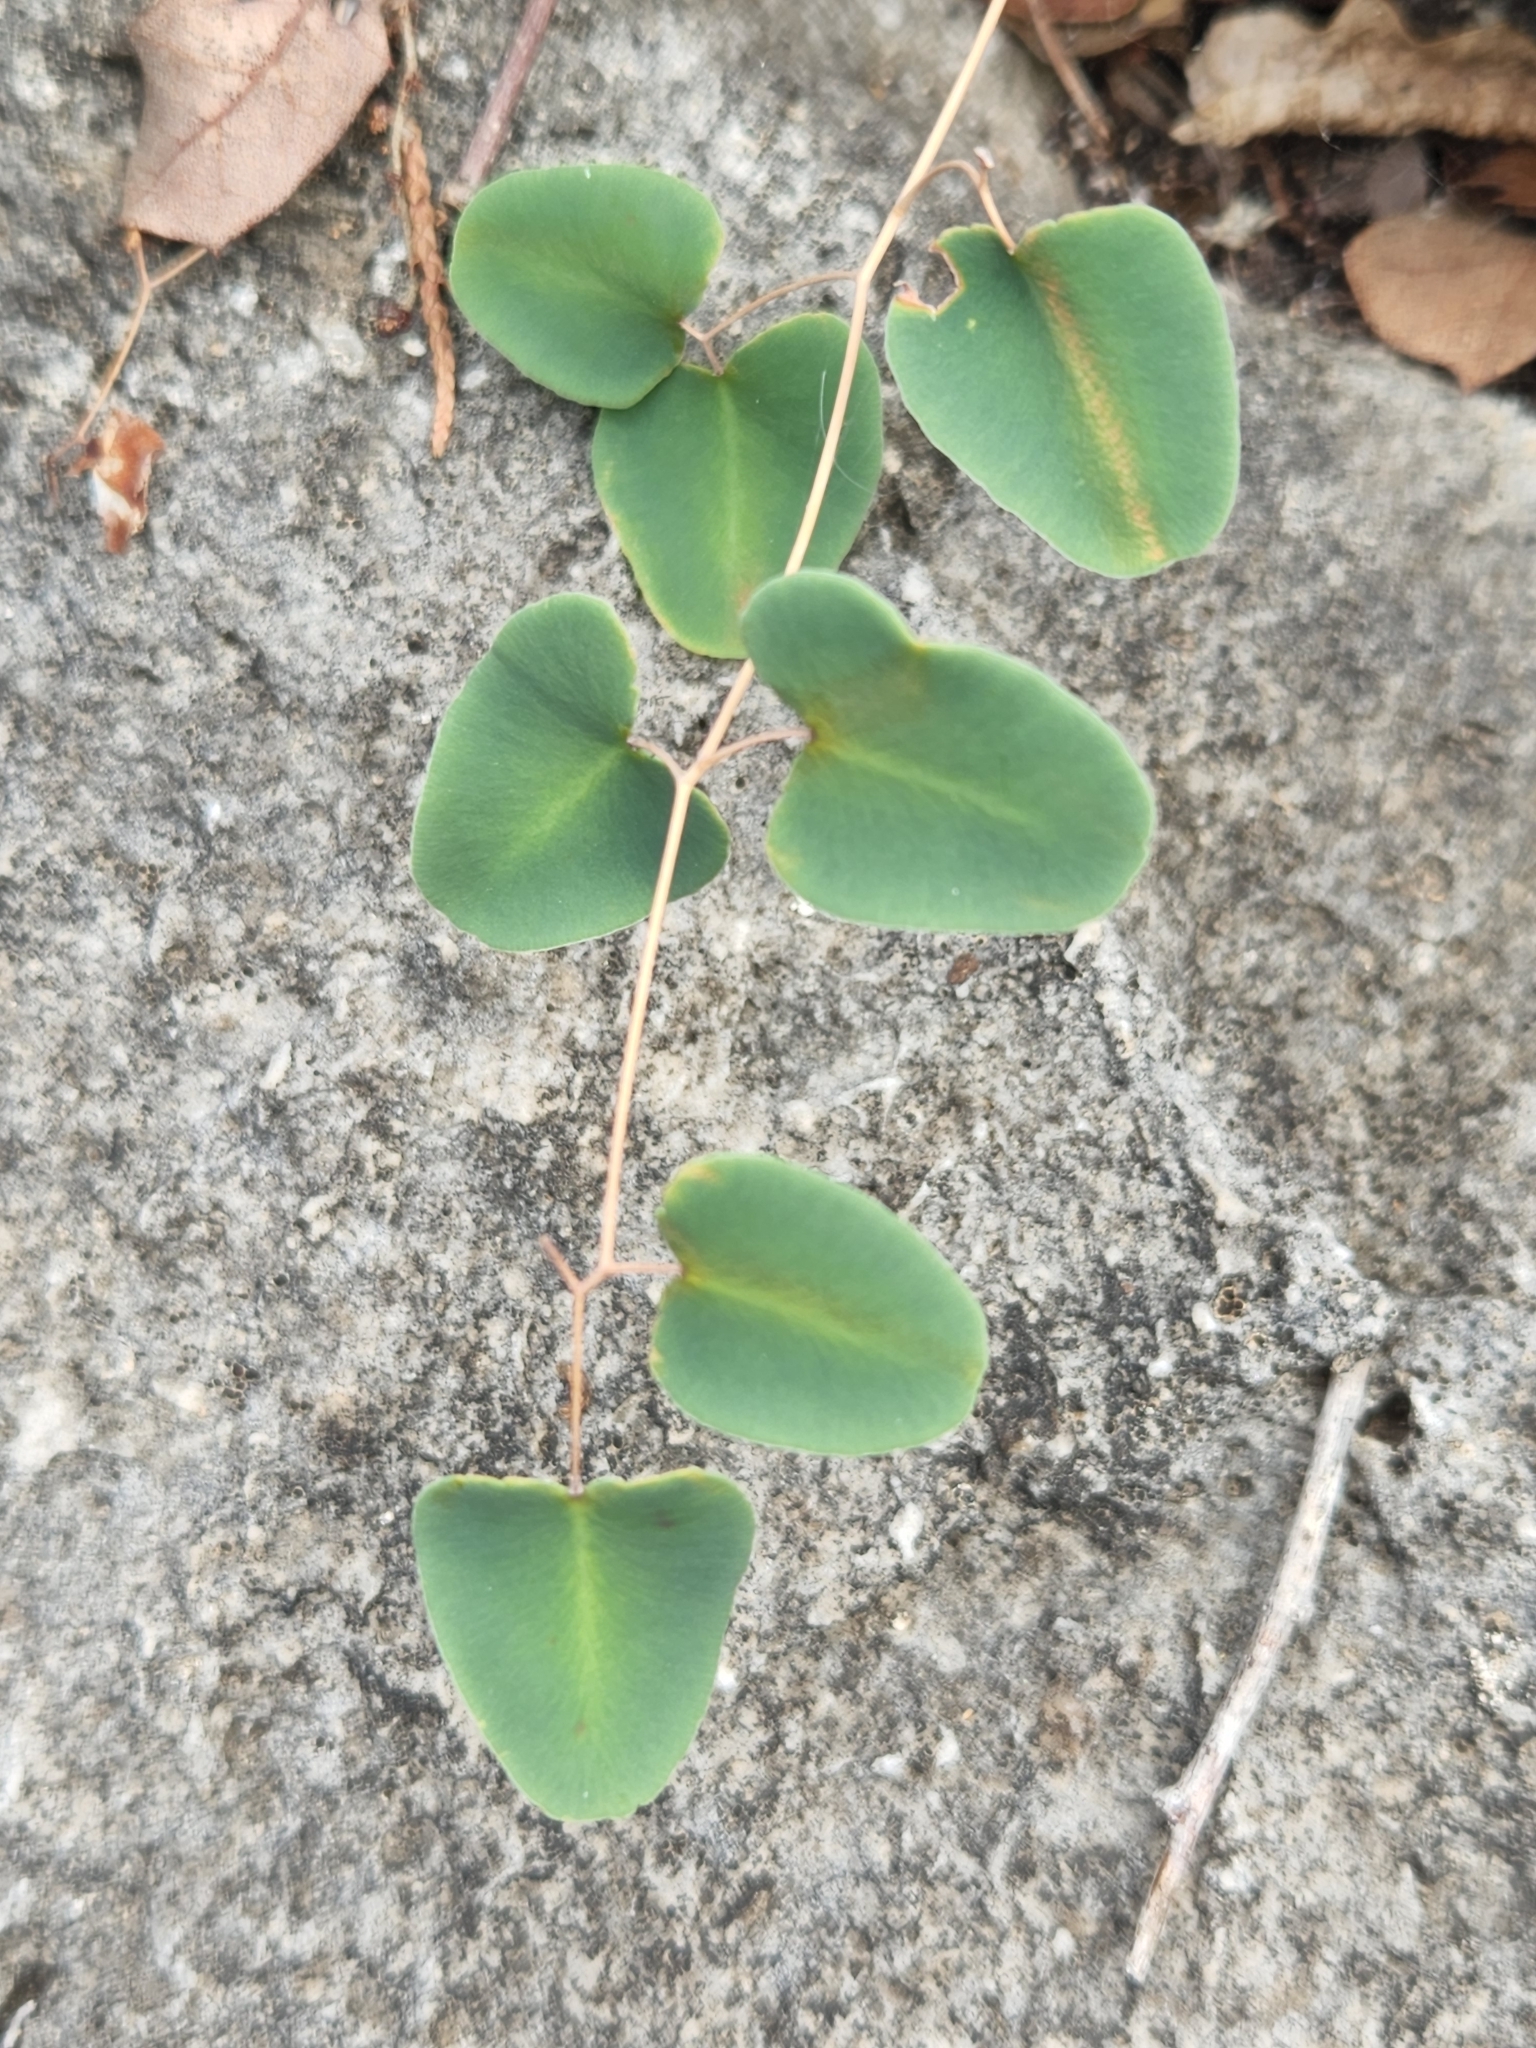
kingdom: Plantae
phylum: Tracheophyta
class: Polypodiopsida
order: Polypodiales
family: Pteridaceae
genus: Pellaea
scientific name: Pellaea ovata
